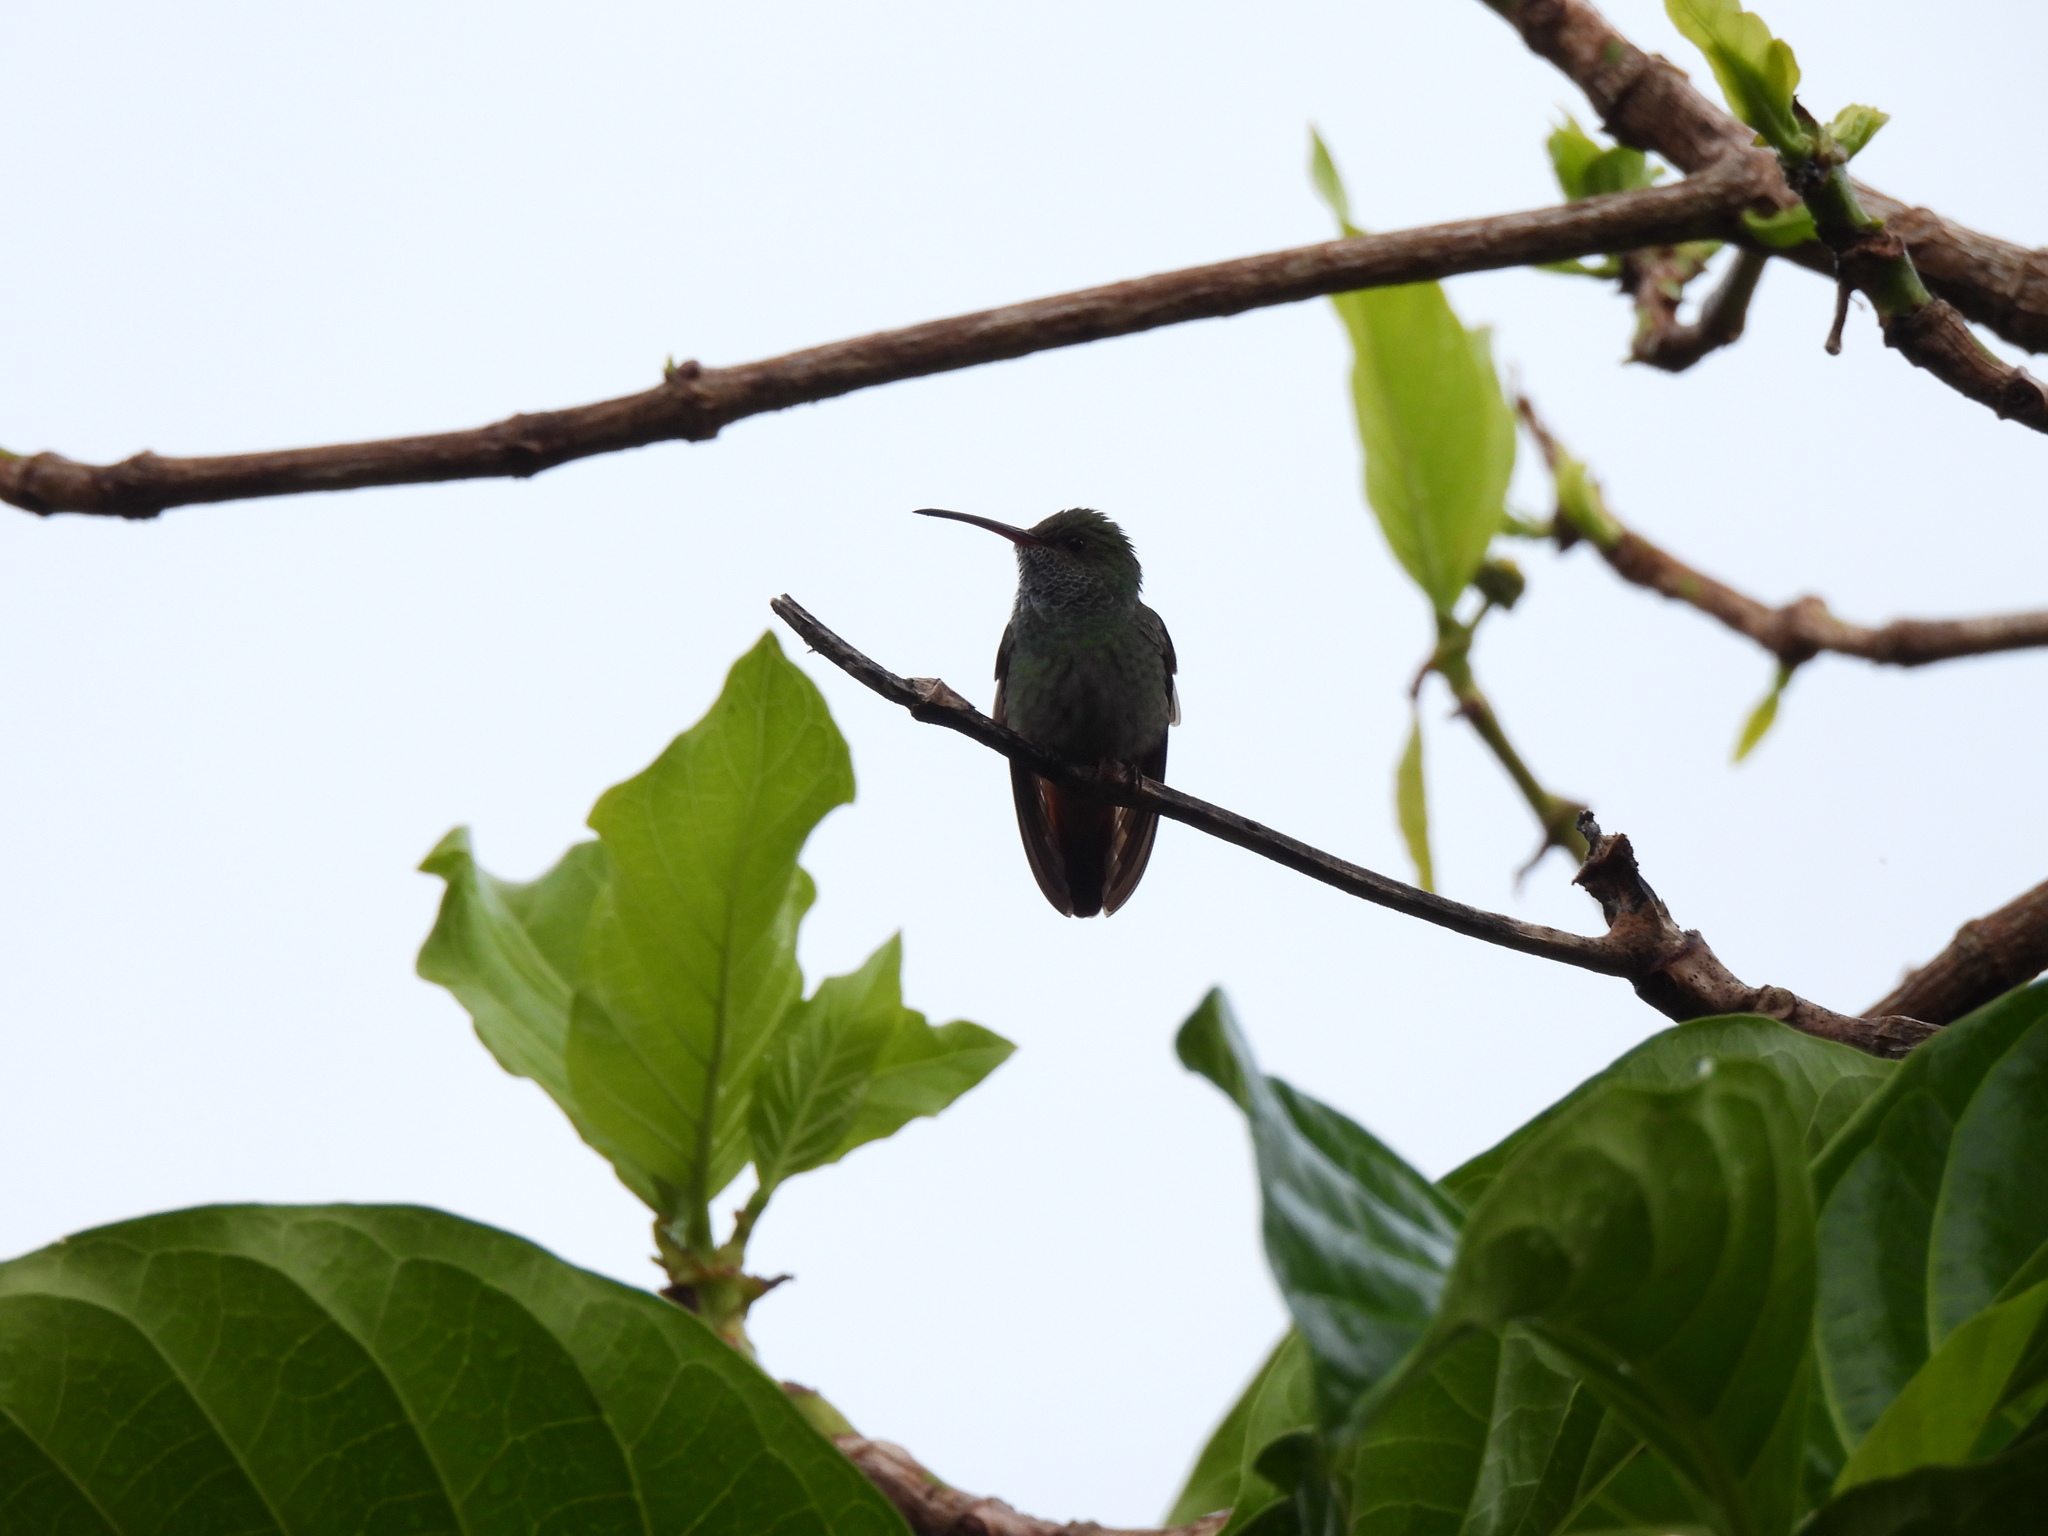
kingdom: Animalia
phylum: Chordata
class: Aves
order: Apodiformes
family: Trochilidae
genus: Amazilia
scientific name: Amazilia tzacatl
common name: Rufous-tailed hummingbird
